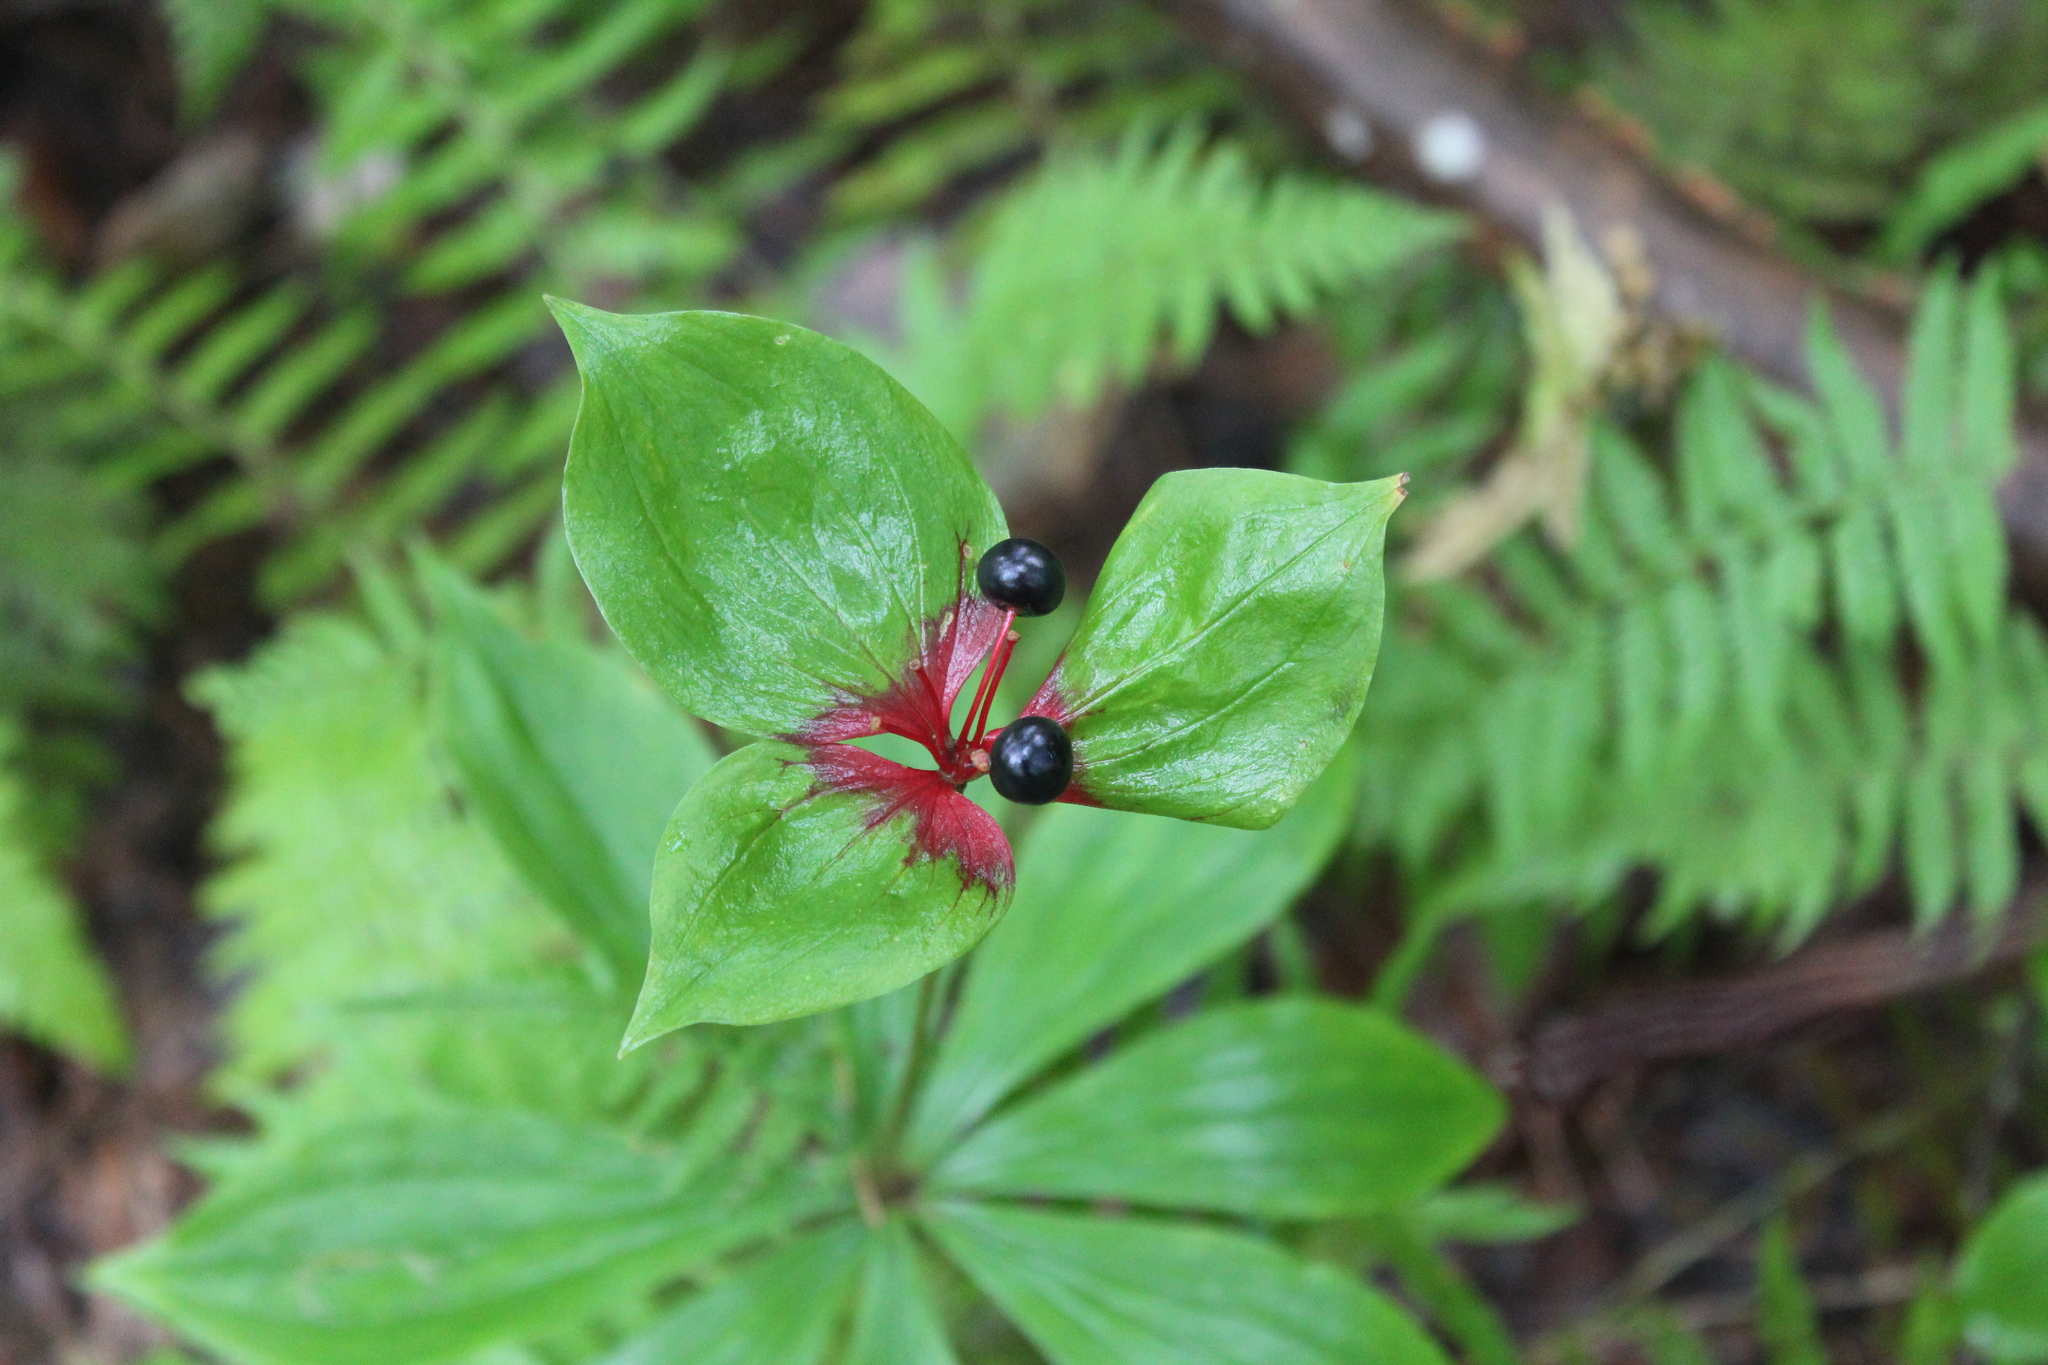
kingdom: Plantae
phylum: Tracheophyta
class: Liliopsida
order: Liliales
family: Liliaceae
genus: Medeola
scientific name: Medeola virginiana
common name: Indian cucumber-root
